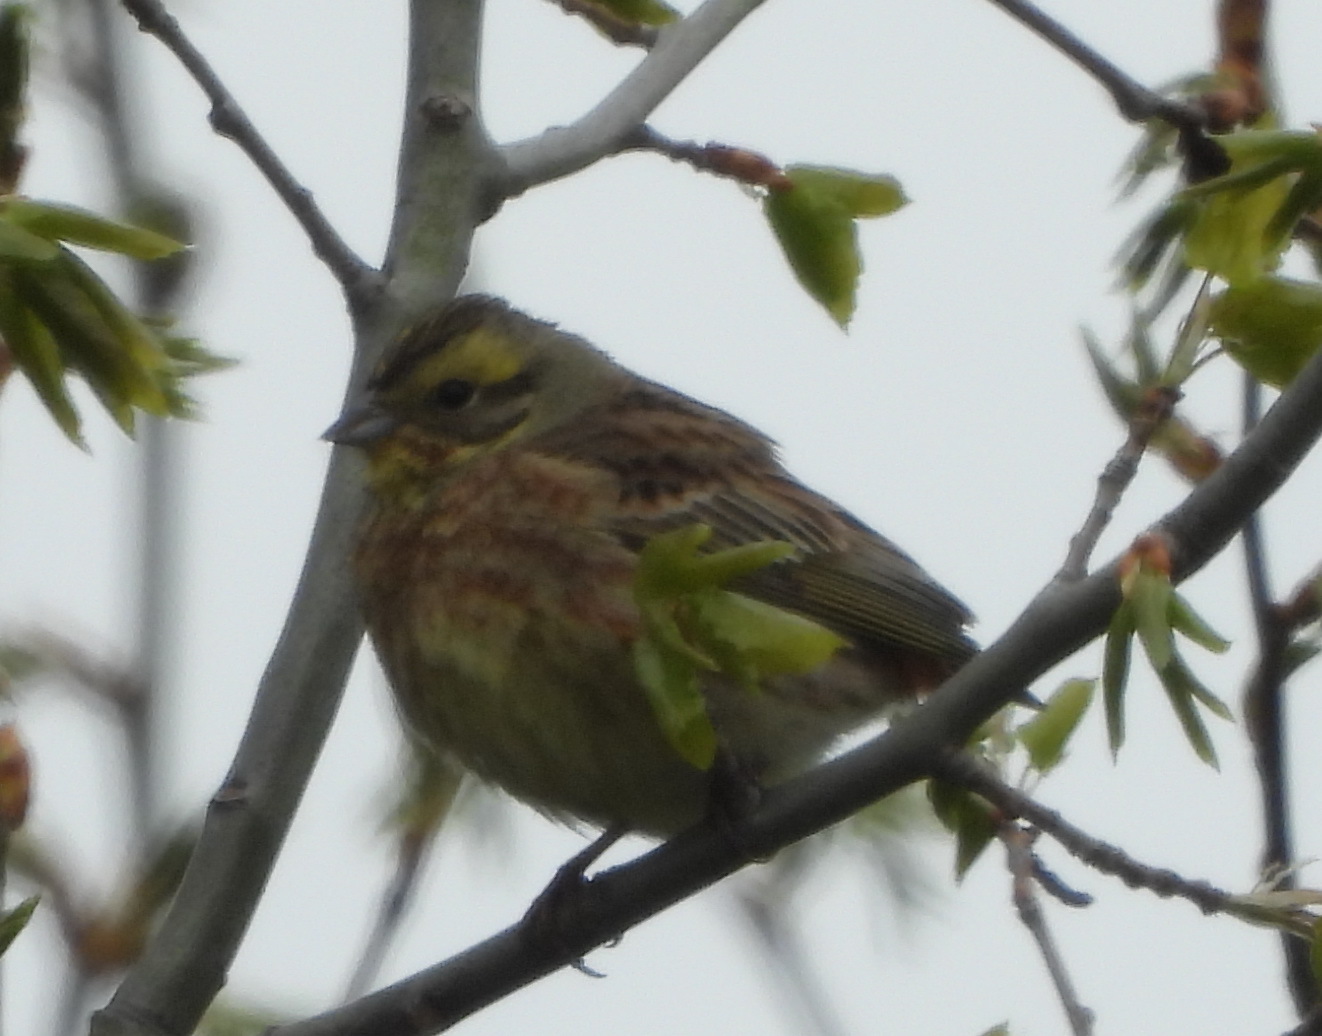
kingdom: Animalia
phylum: Chordata
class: Aves
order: Passeriformes
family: Emberizidae
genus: Emberiza
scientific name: Emberiza citrinella
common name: Yellowhammer
